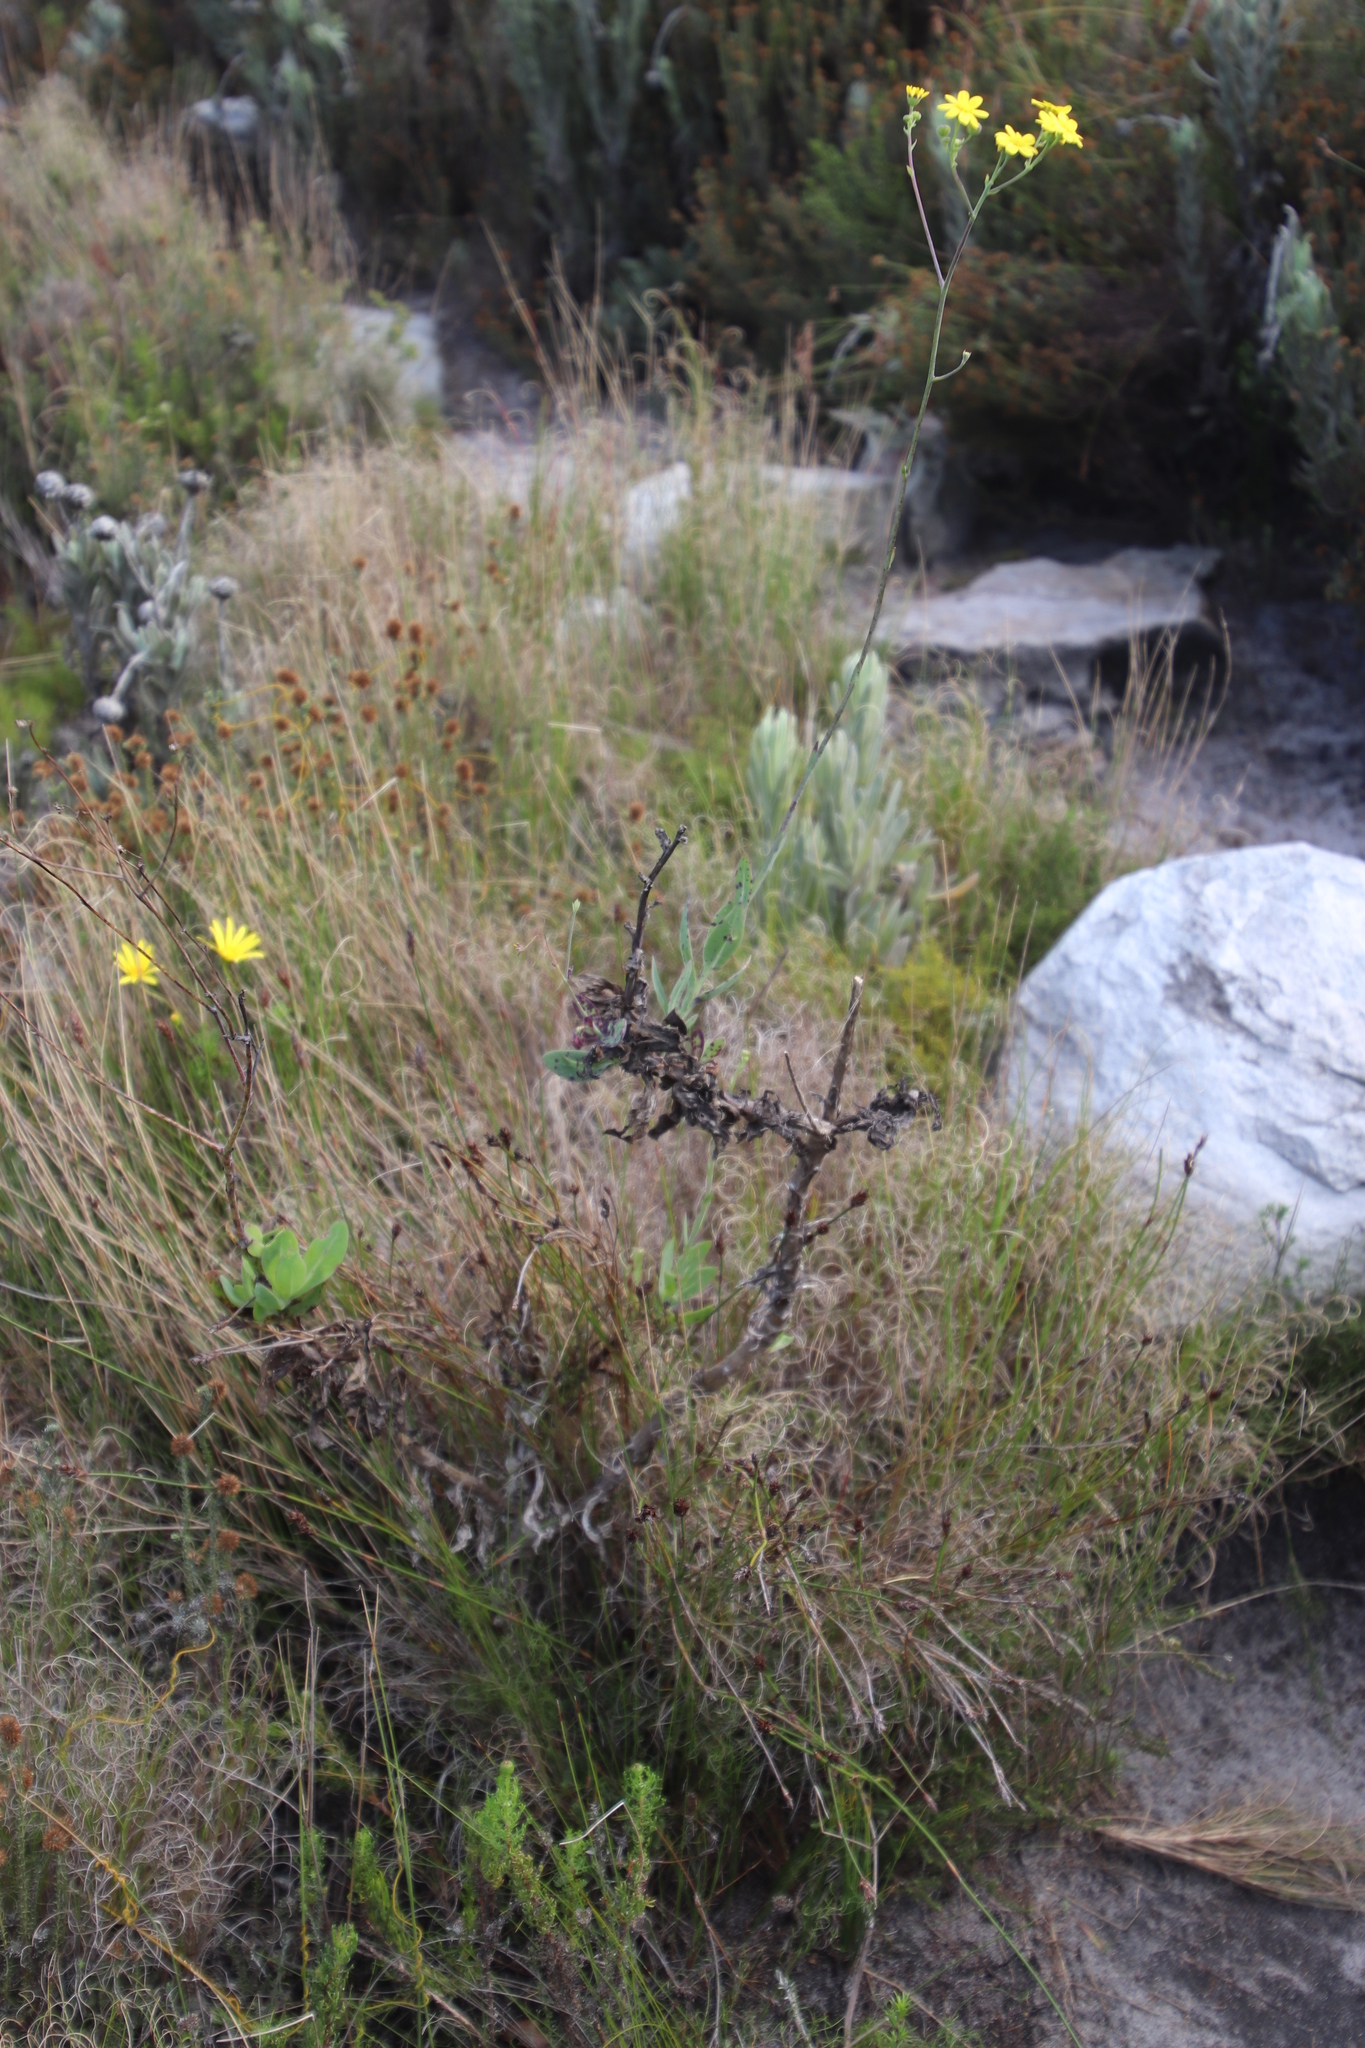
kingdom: Plantae
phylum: Tracheophyta
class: Magnoliopsida
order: Asterales
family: Asteraceae
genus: Othonna
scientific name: Othonna quinquedentata
